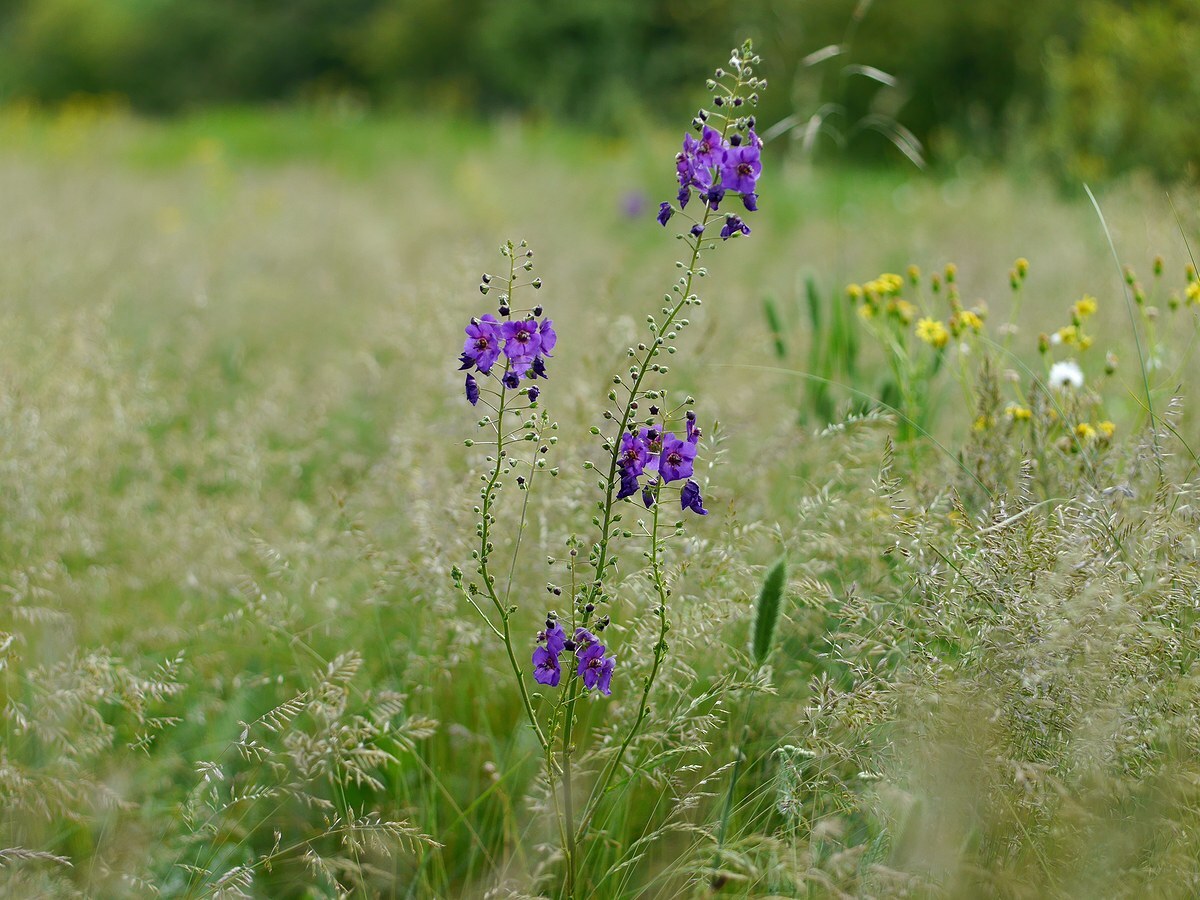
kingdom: Plantae
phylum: Tracheophyta
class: Magnoliopsida
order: Lamiales
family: Scrophulariaceae
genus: Verbascum
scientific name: Verbascum phoeniceum
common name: Purple mullein
